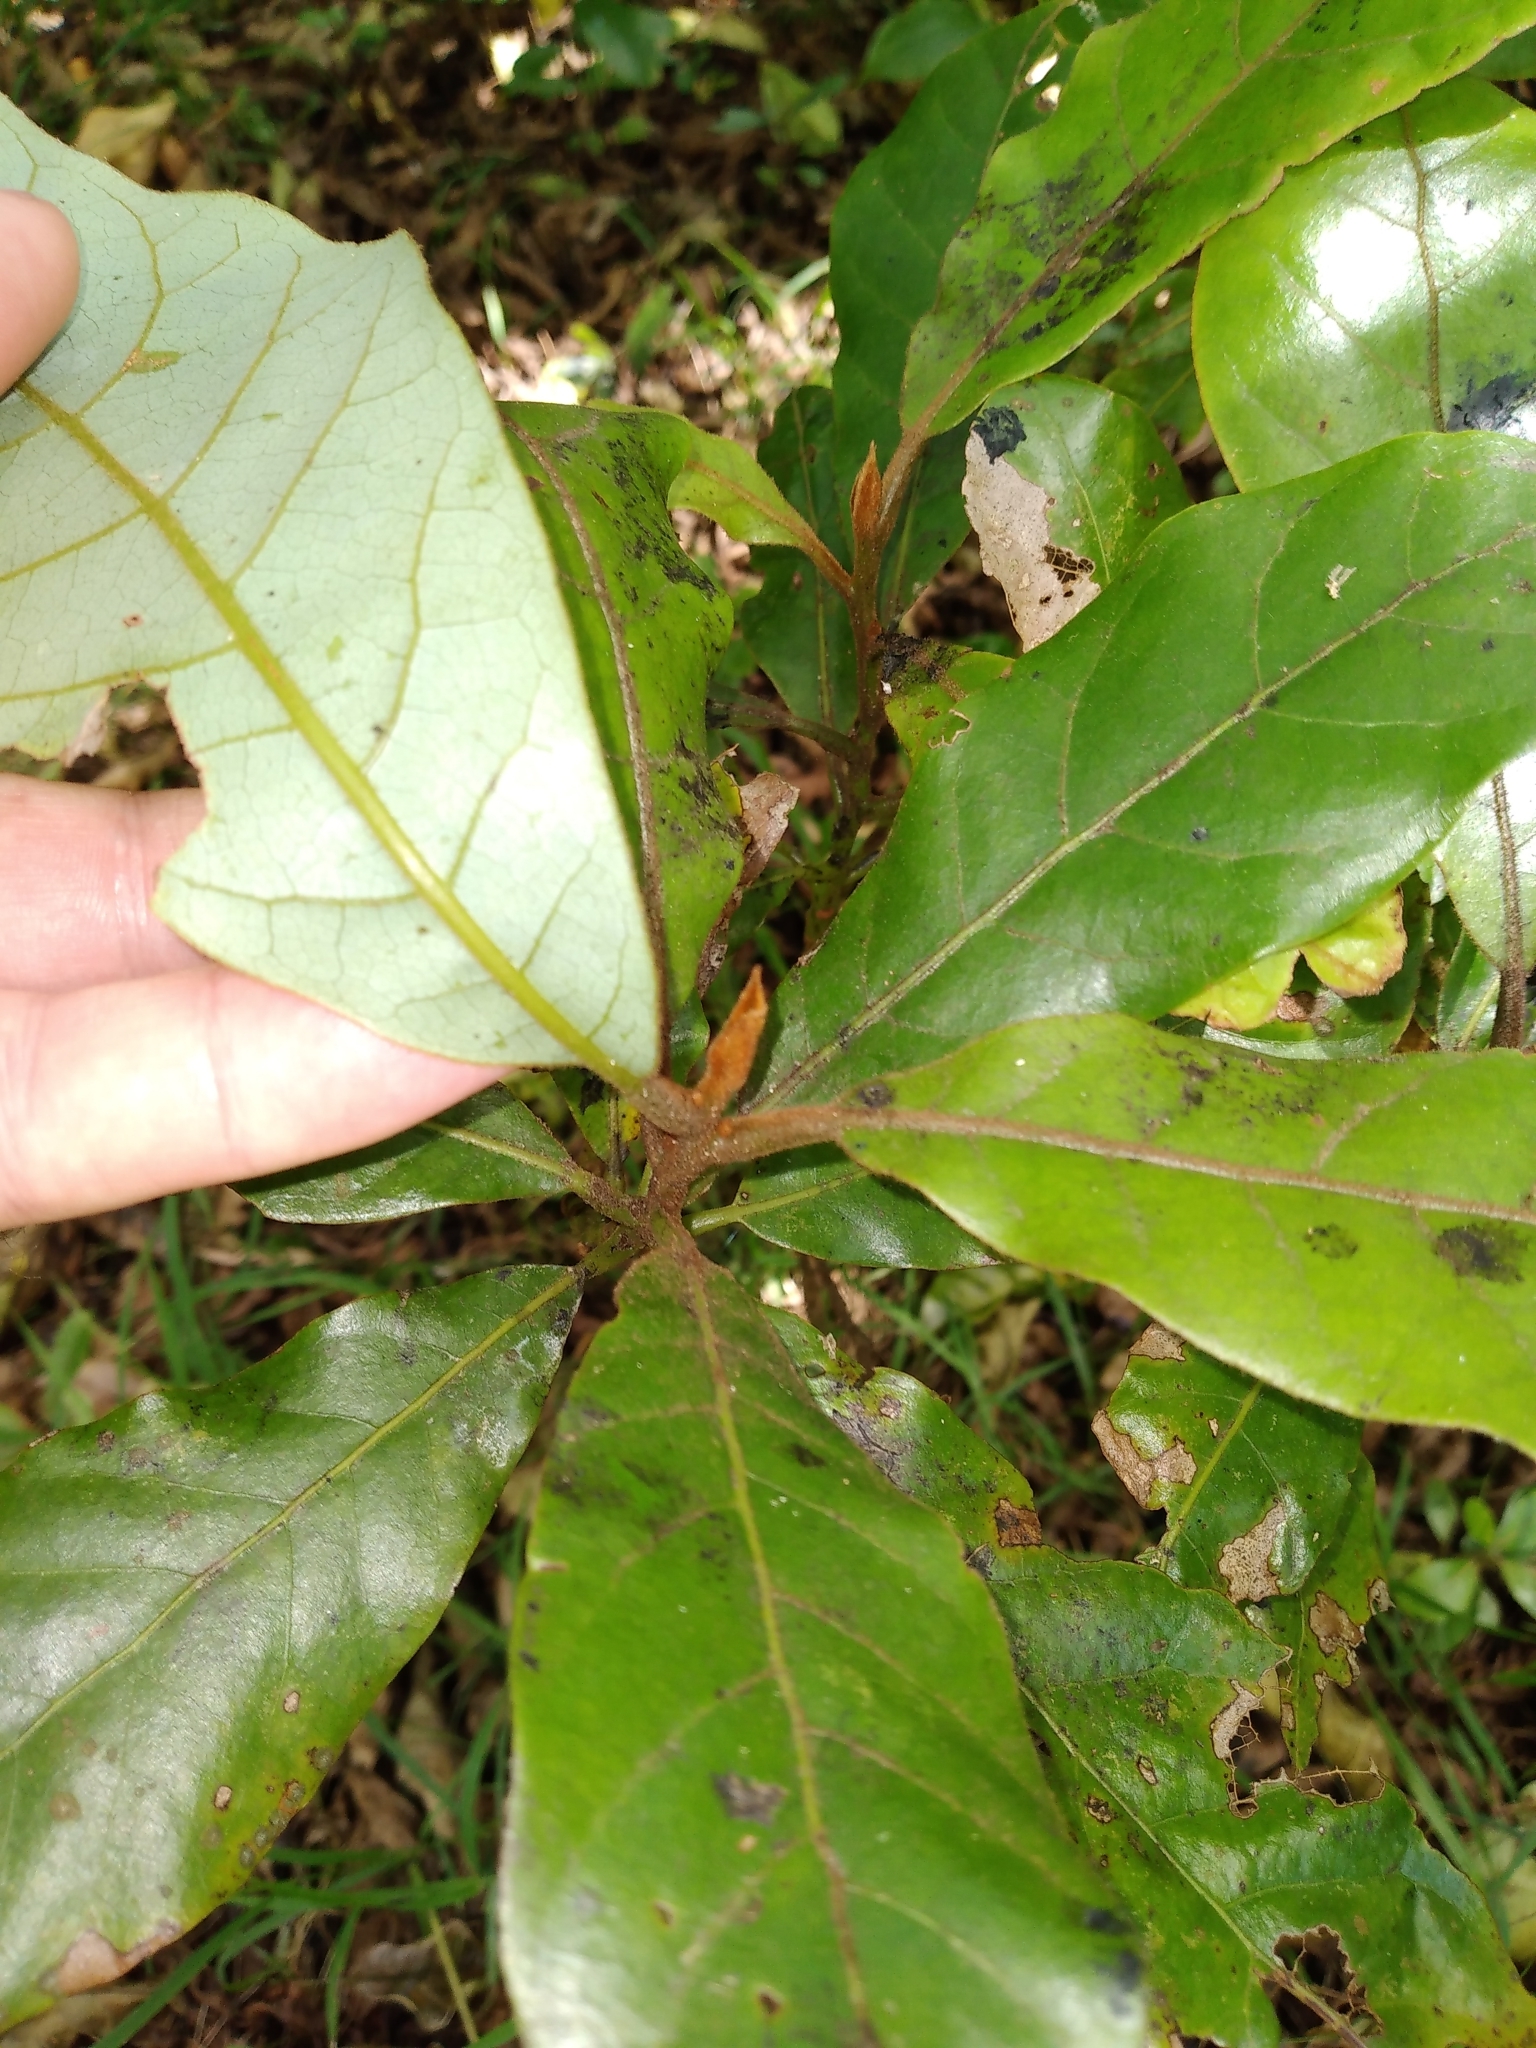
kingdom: Plantae
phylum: Tracheophyta
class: Magnoliopsida
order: Laurales
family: Lauraceae
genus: Beilschmiedia
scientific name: Beilschmiedia tarairi
